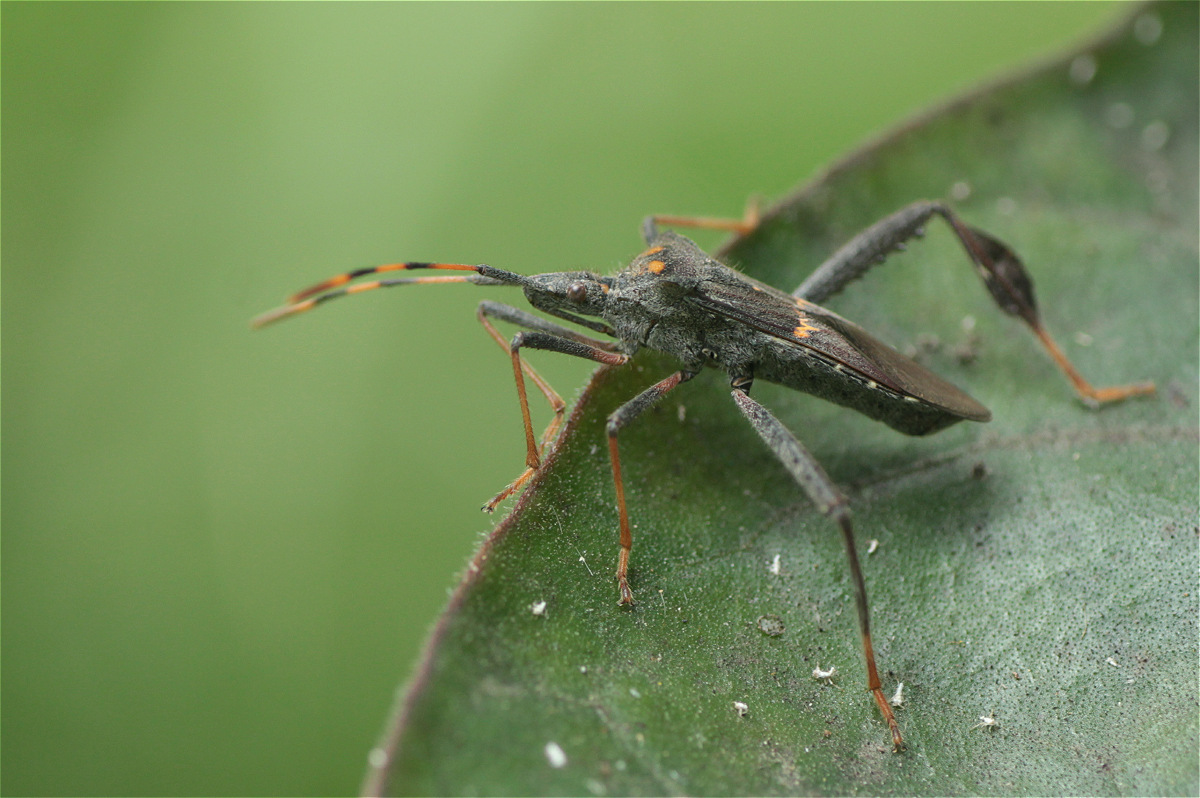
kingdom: Animalia
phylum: Arthropoda
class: Insecta
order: Hemiptera
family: Coreidae
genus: Leptoglossus
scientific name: Leptoglossus zonatus
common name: Large-legged bug
